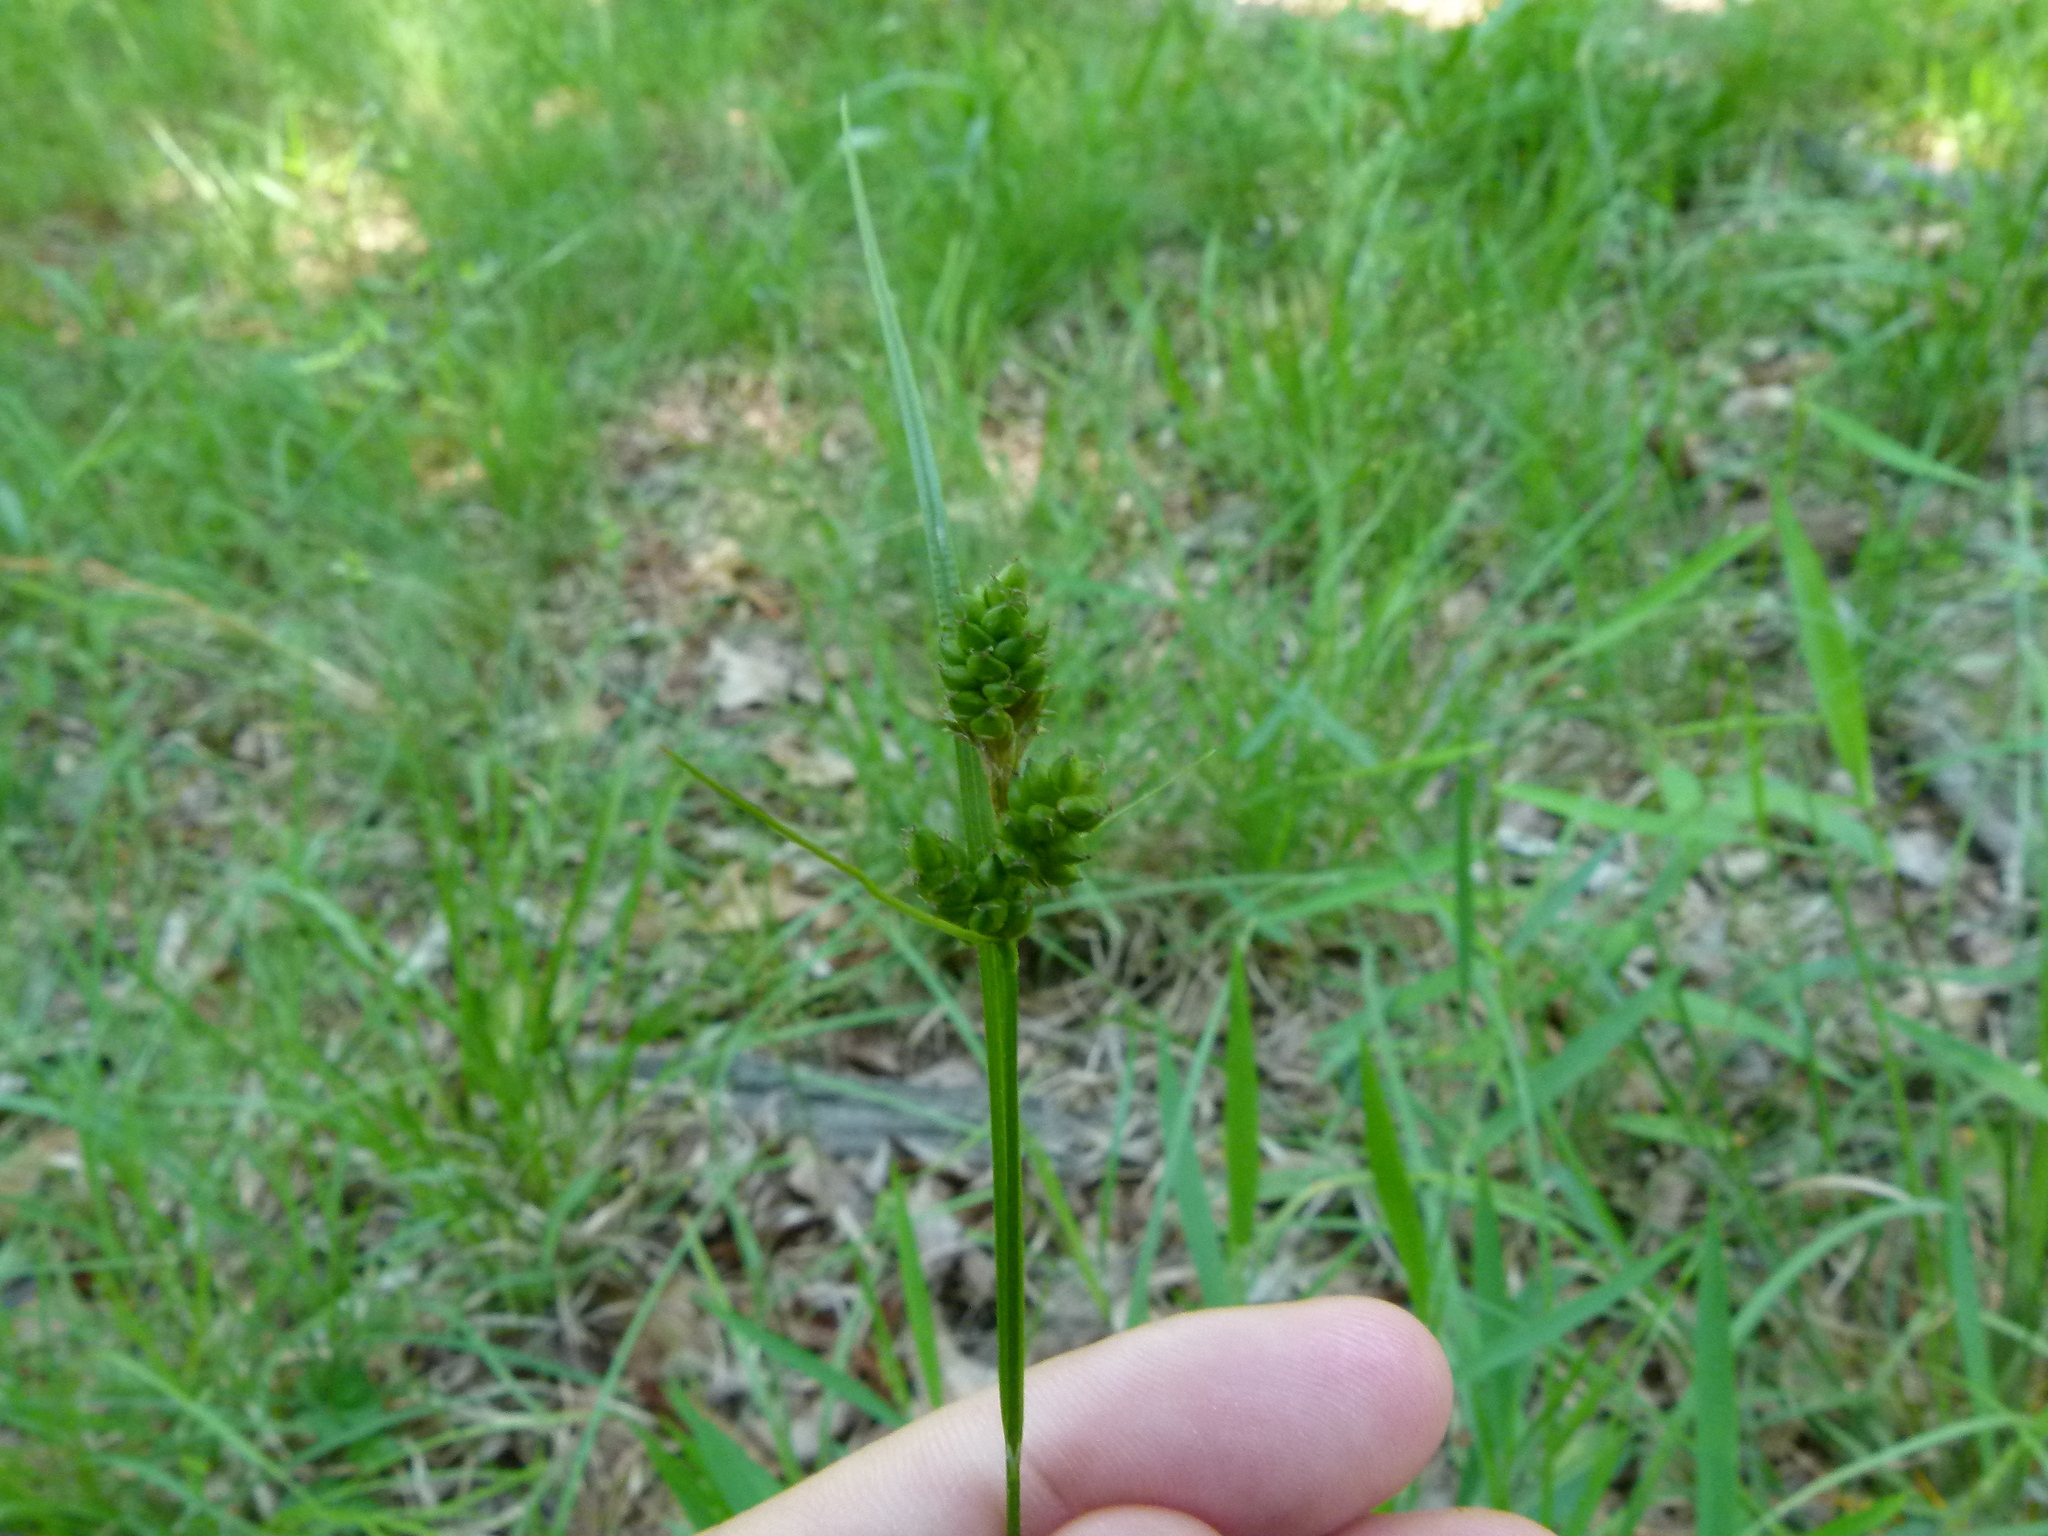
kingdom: Plantae
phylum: Tracheophyta
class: Liliopsida
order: Poales
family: Cyperaceae
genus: Carex
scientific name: Carex complanata
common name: Hirsute sedge
